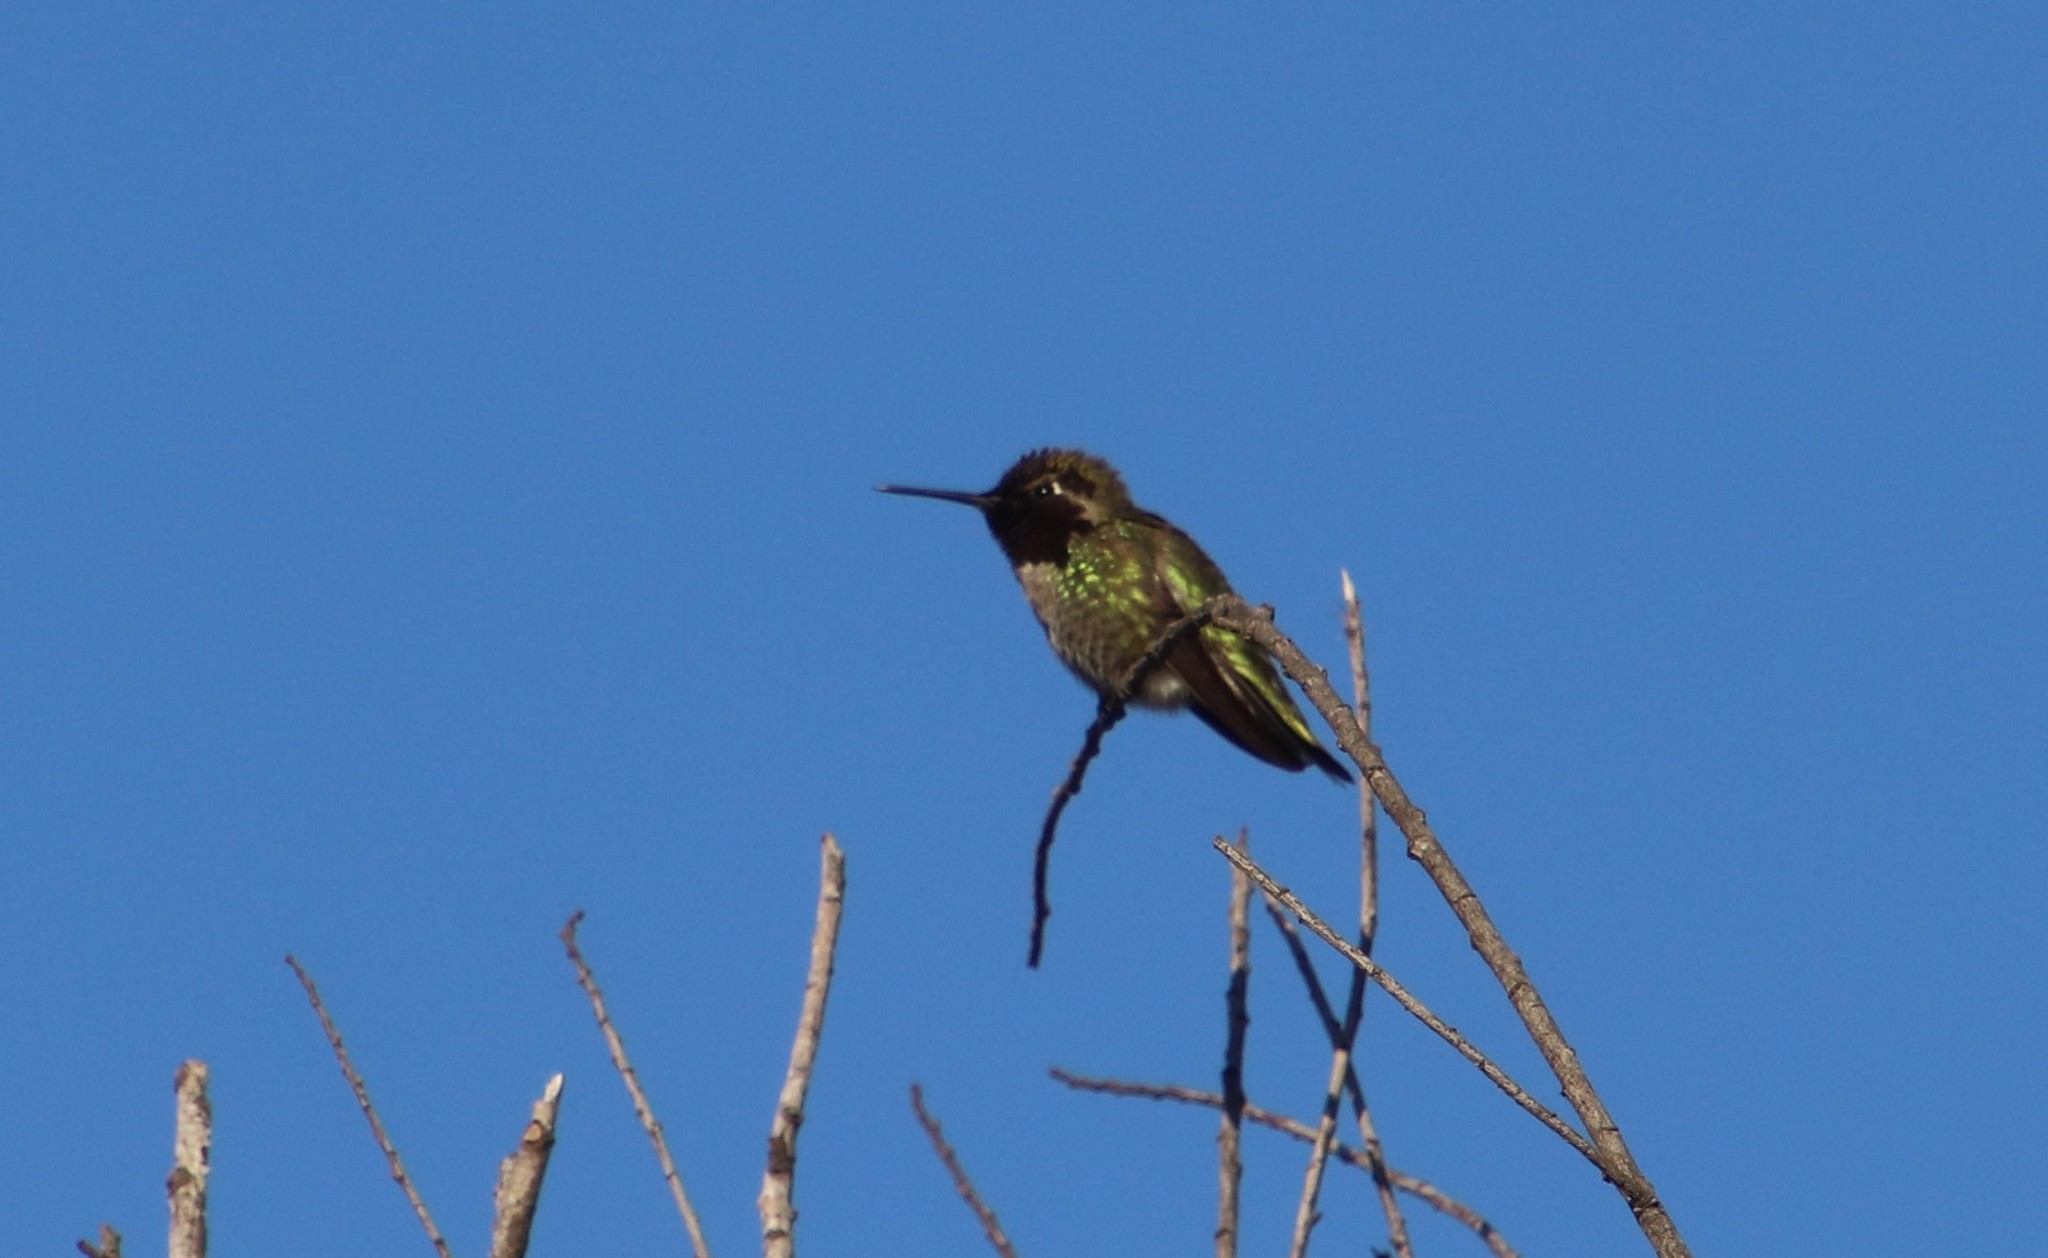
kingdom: Animalia
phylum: Chordata
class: Aves
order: Apodiformes
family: Trochilidae
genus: Calypte
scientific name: Calypte anna
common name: Anna's hummingbird
